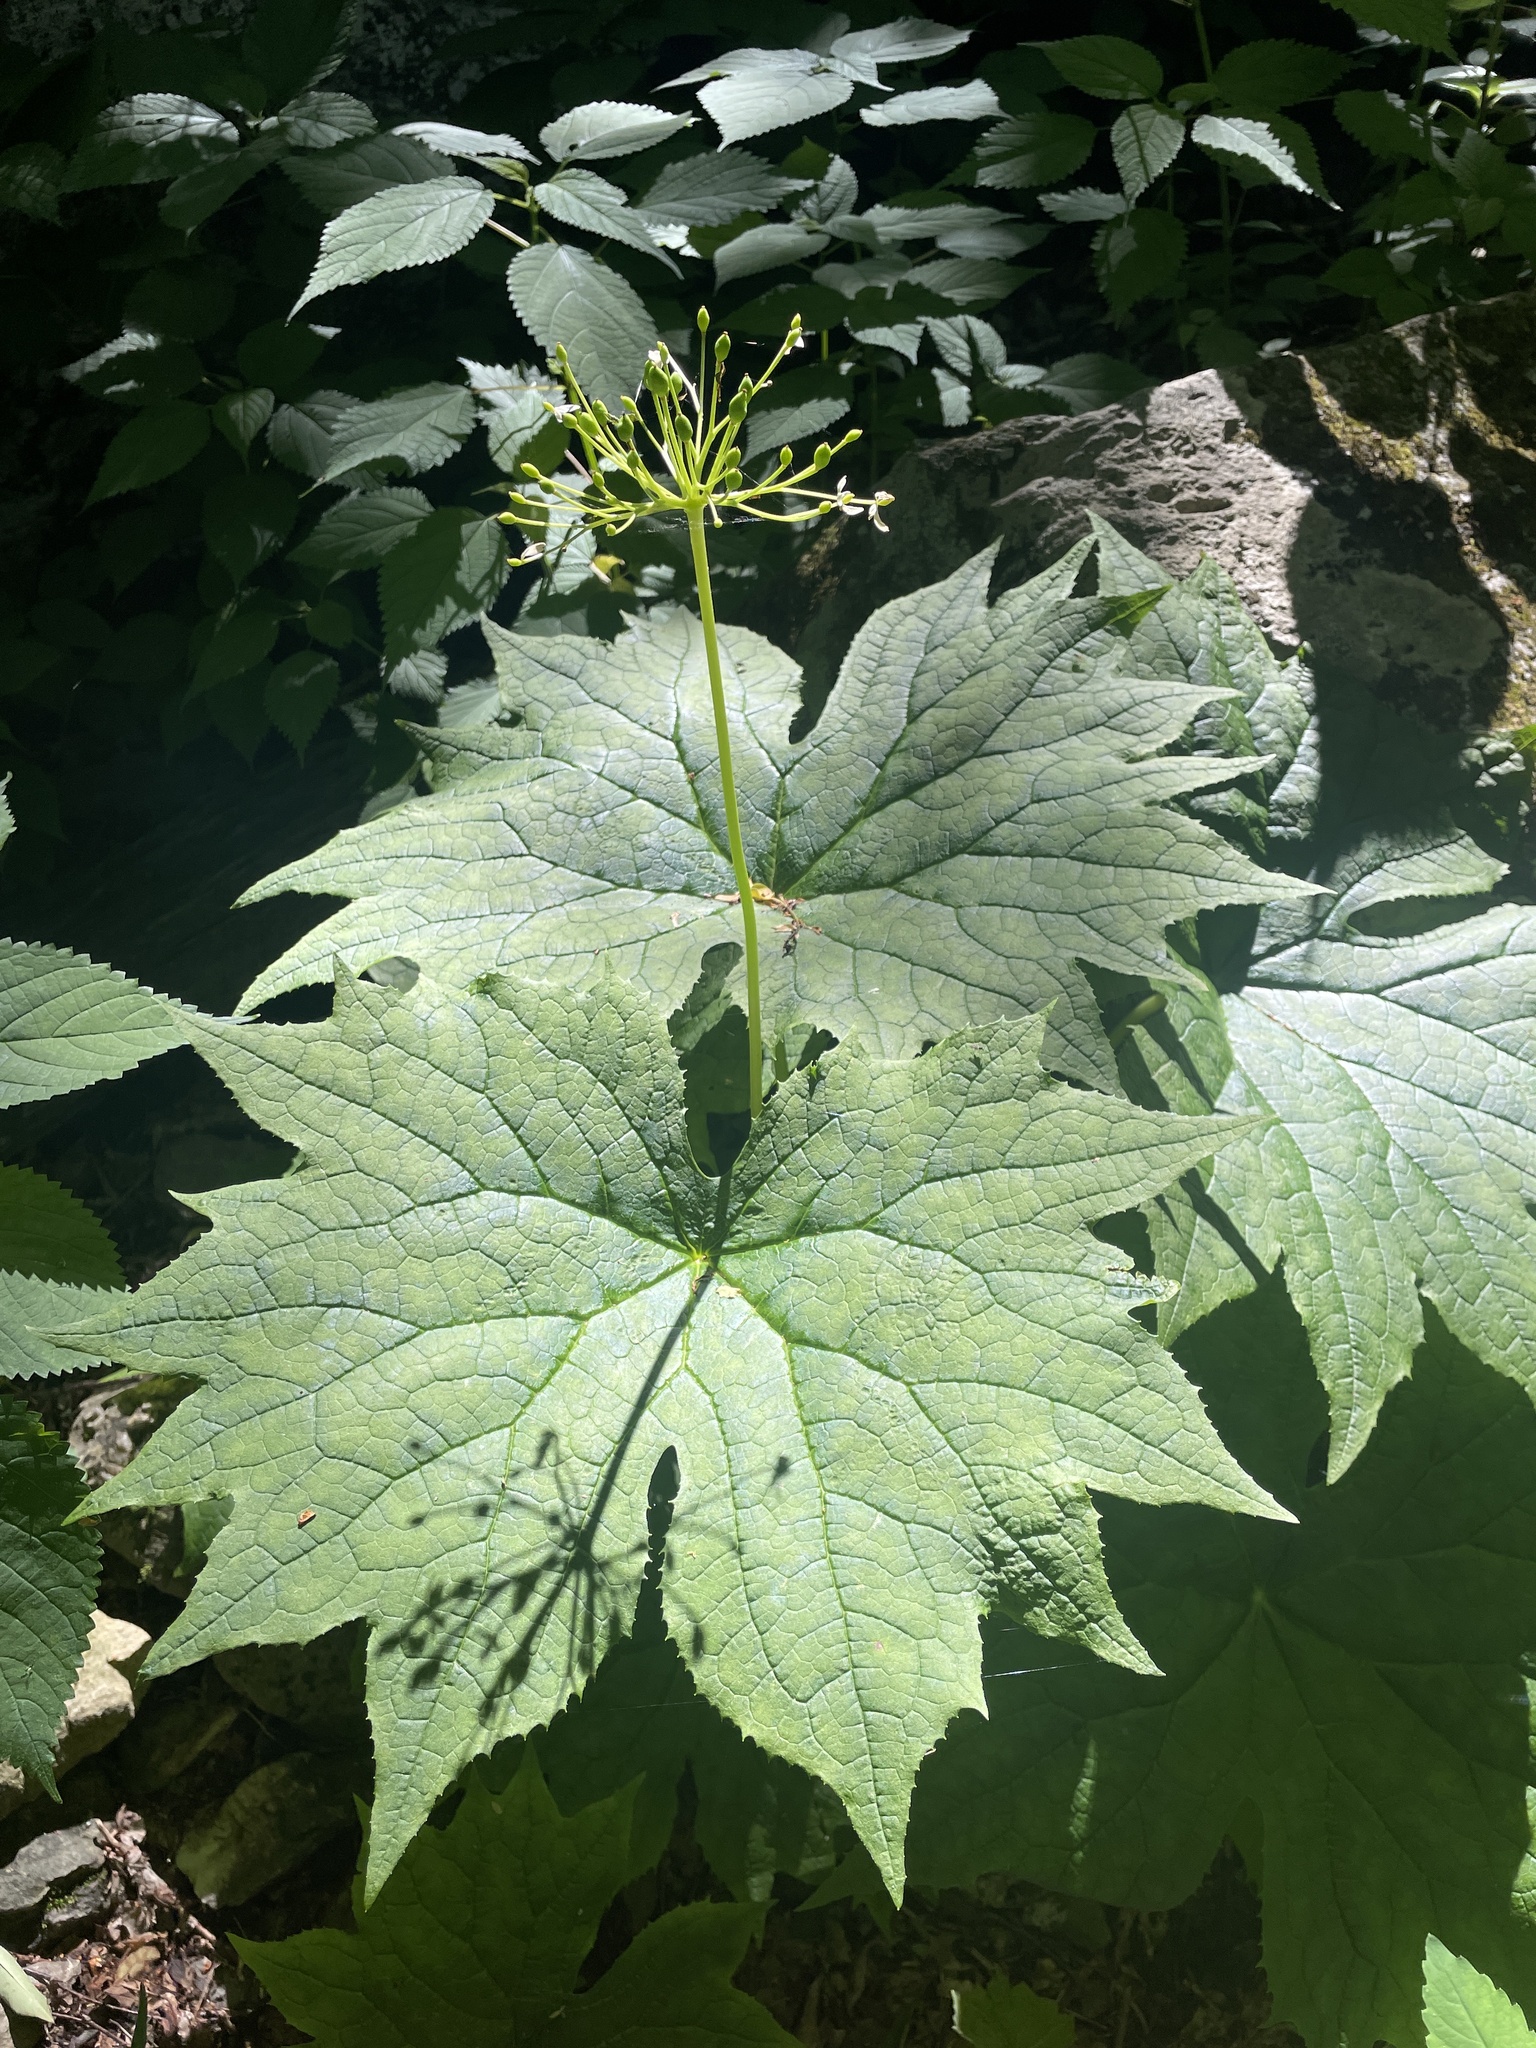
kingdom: Plantae
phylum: Tracheophyta
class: Magnoliopsida
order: Ranunculales
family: Berberidaceae
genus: Diphylleia
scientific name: Diphylleia cymosa
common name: Umbrella-leaf
